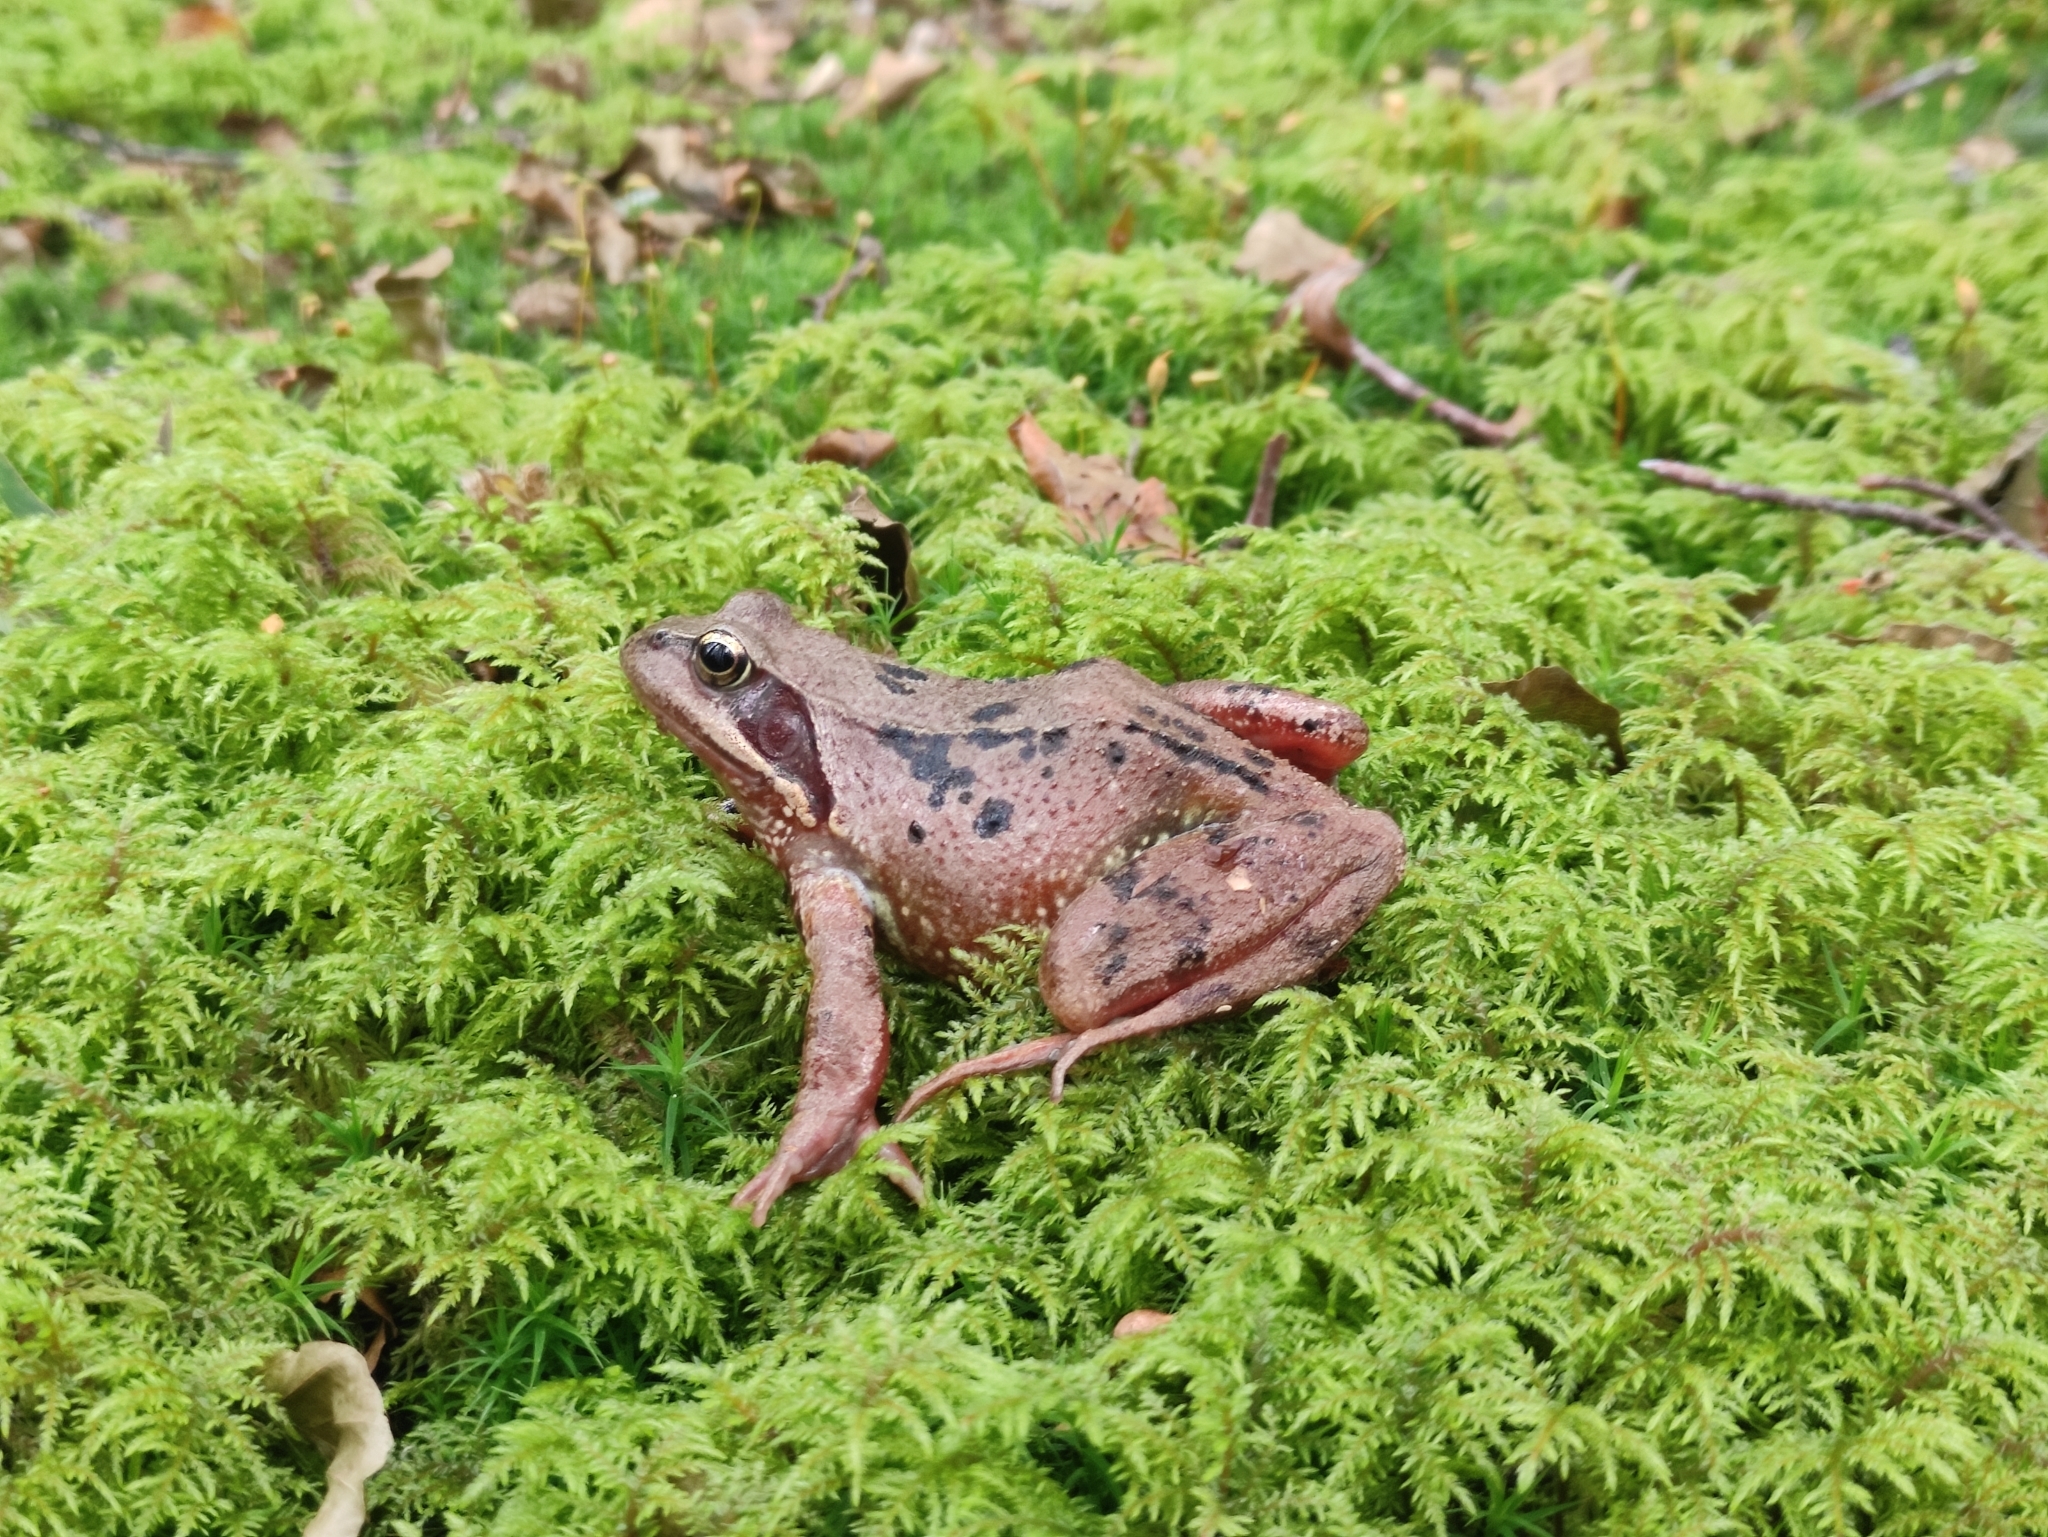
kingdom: Animalia
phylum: Chordata
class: Amphibia
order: Anura
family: Ranidae
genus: Rana
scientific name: Rana temporaria
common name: Common frog
